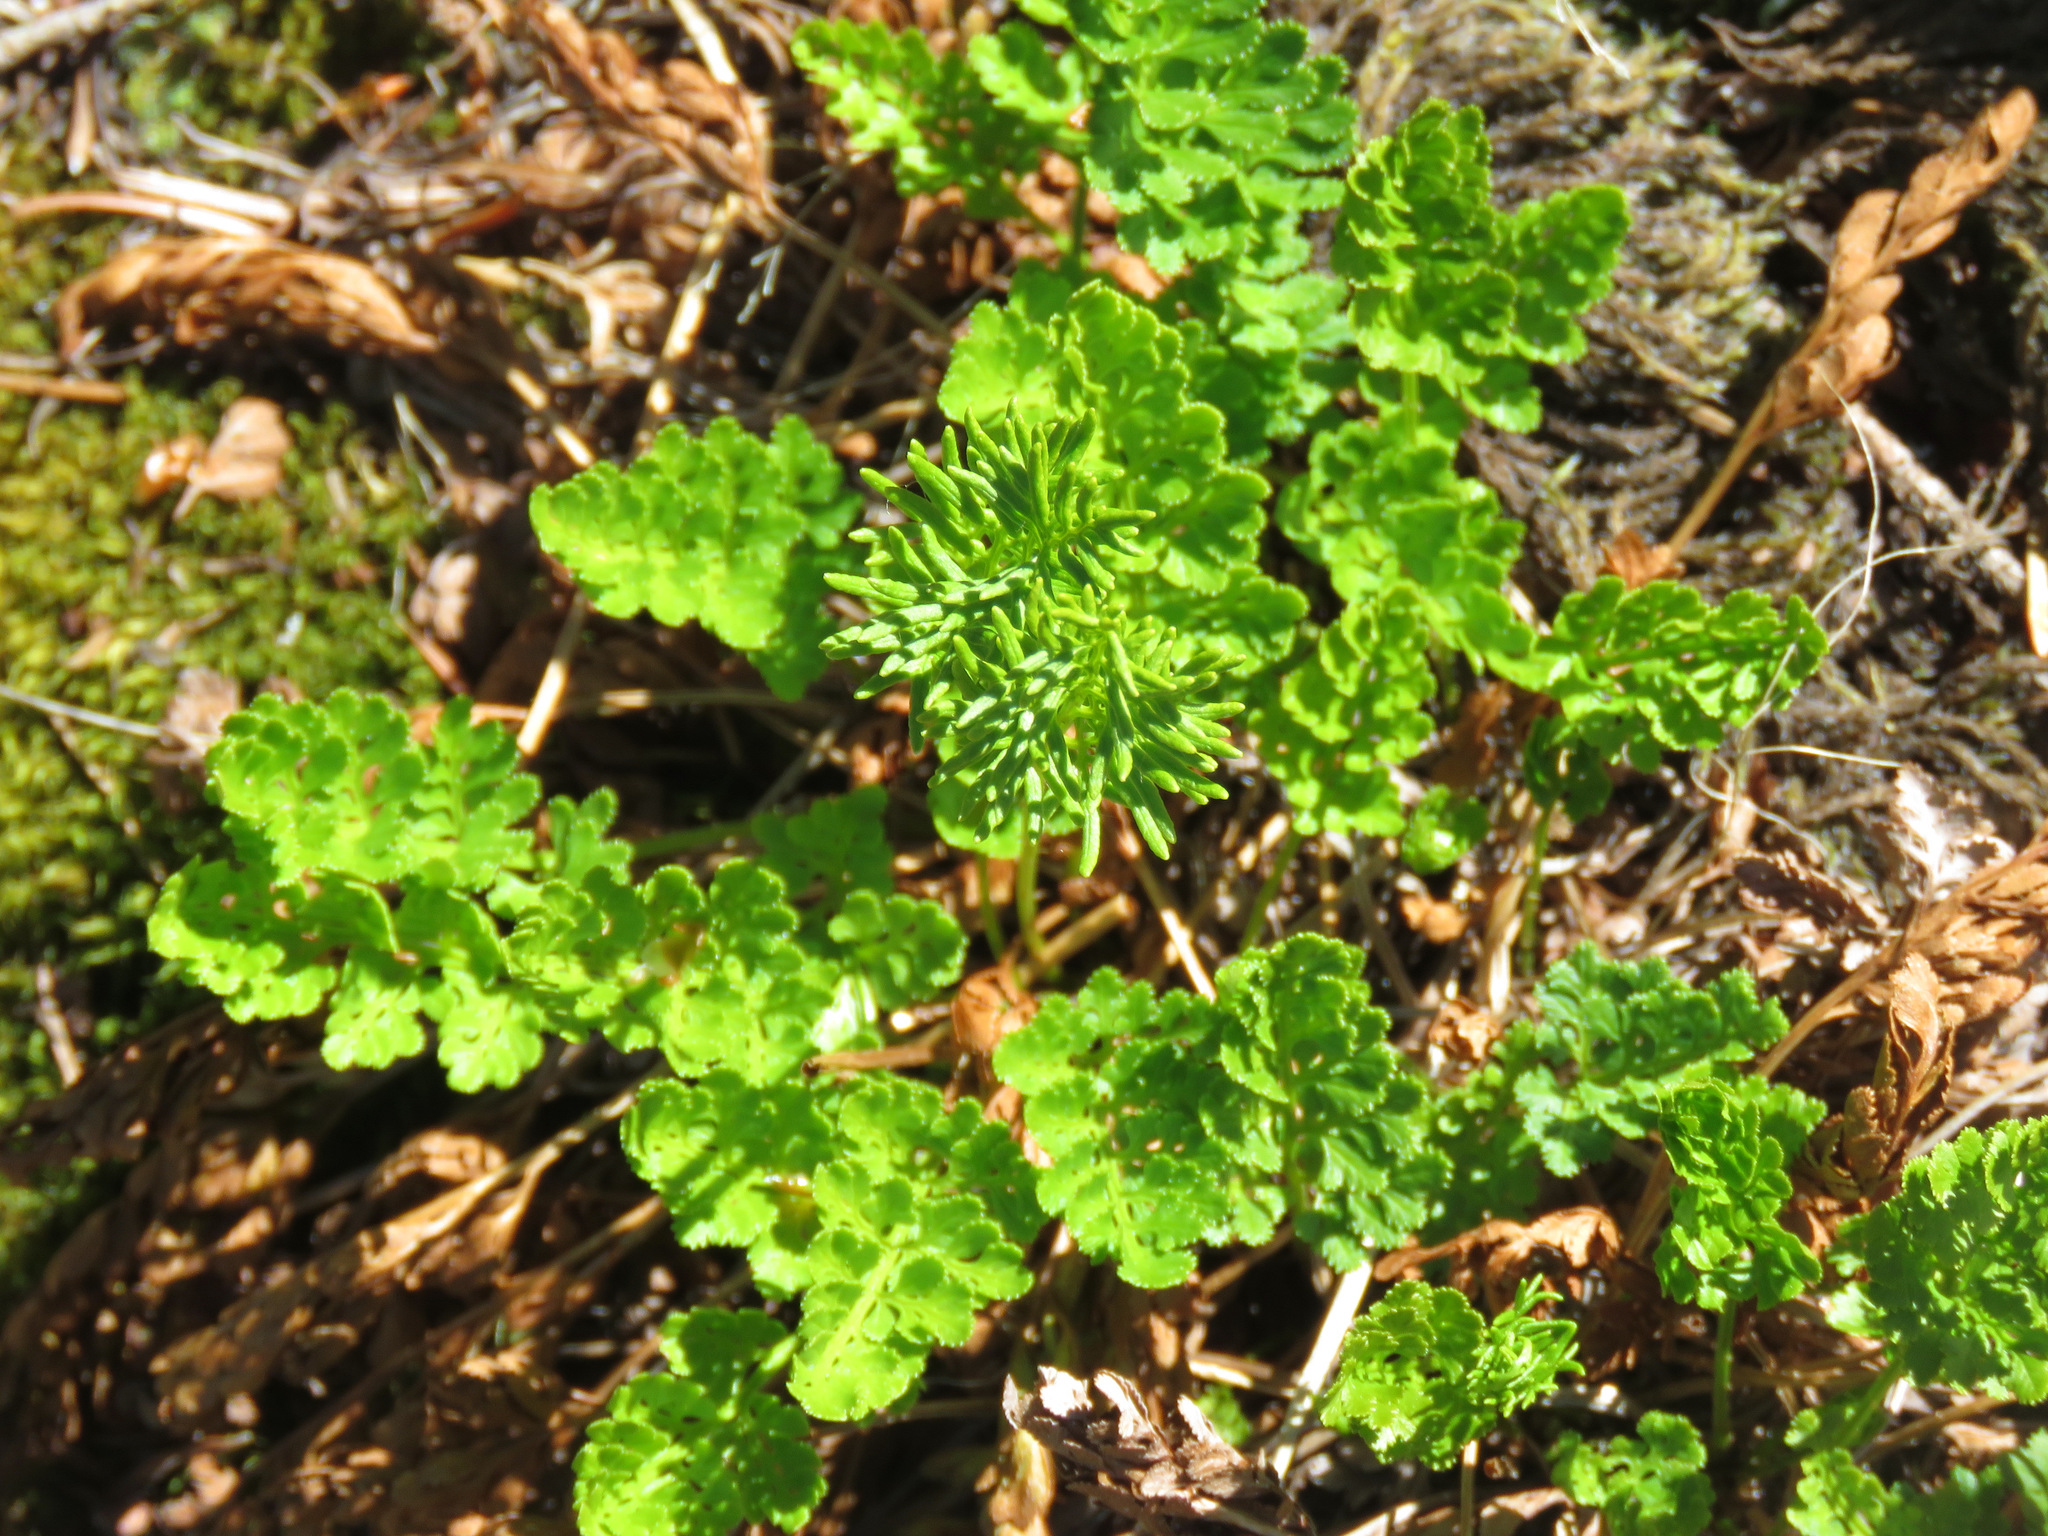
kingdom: Plantae
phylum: Tracheophyta
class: Polypodiopsida
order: Polypodiales
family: Pteridaceae
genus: Cryptogramma
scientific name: Cryptogramma acrostichoides
